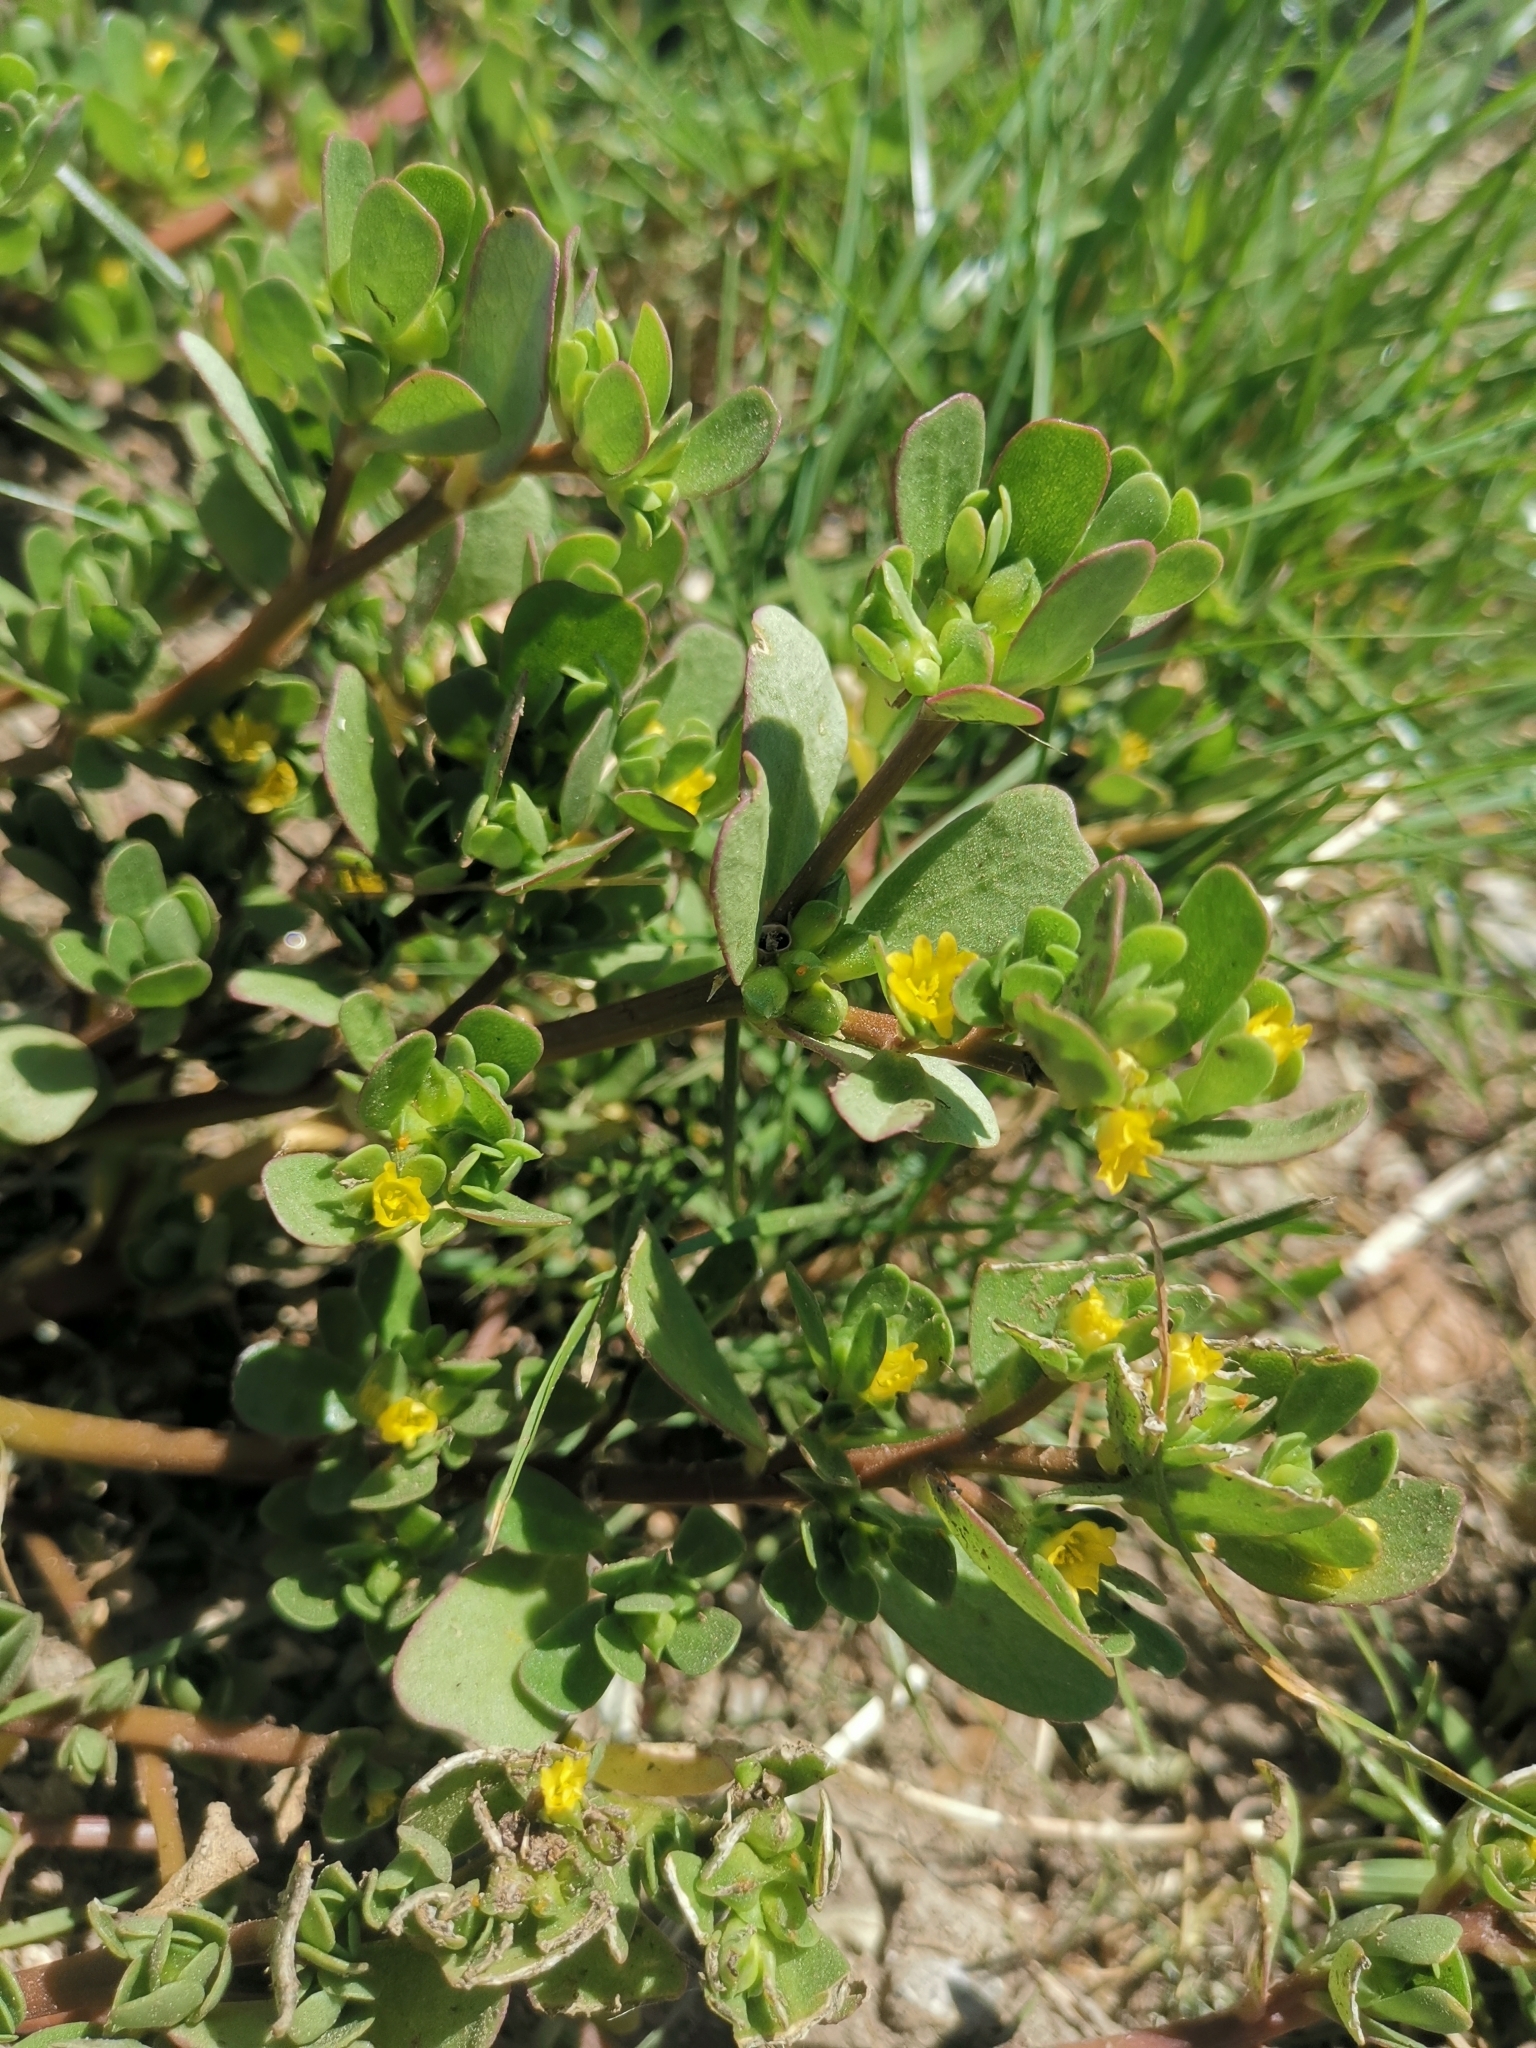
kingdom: Plantae
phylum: Tracheophyta
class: Magnoliopsida
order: Caryophyllales
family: Portulacaceae
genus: Portulaca
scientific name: Portulaca oleracea
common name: Common purslane
